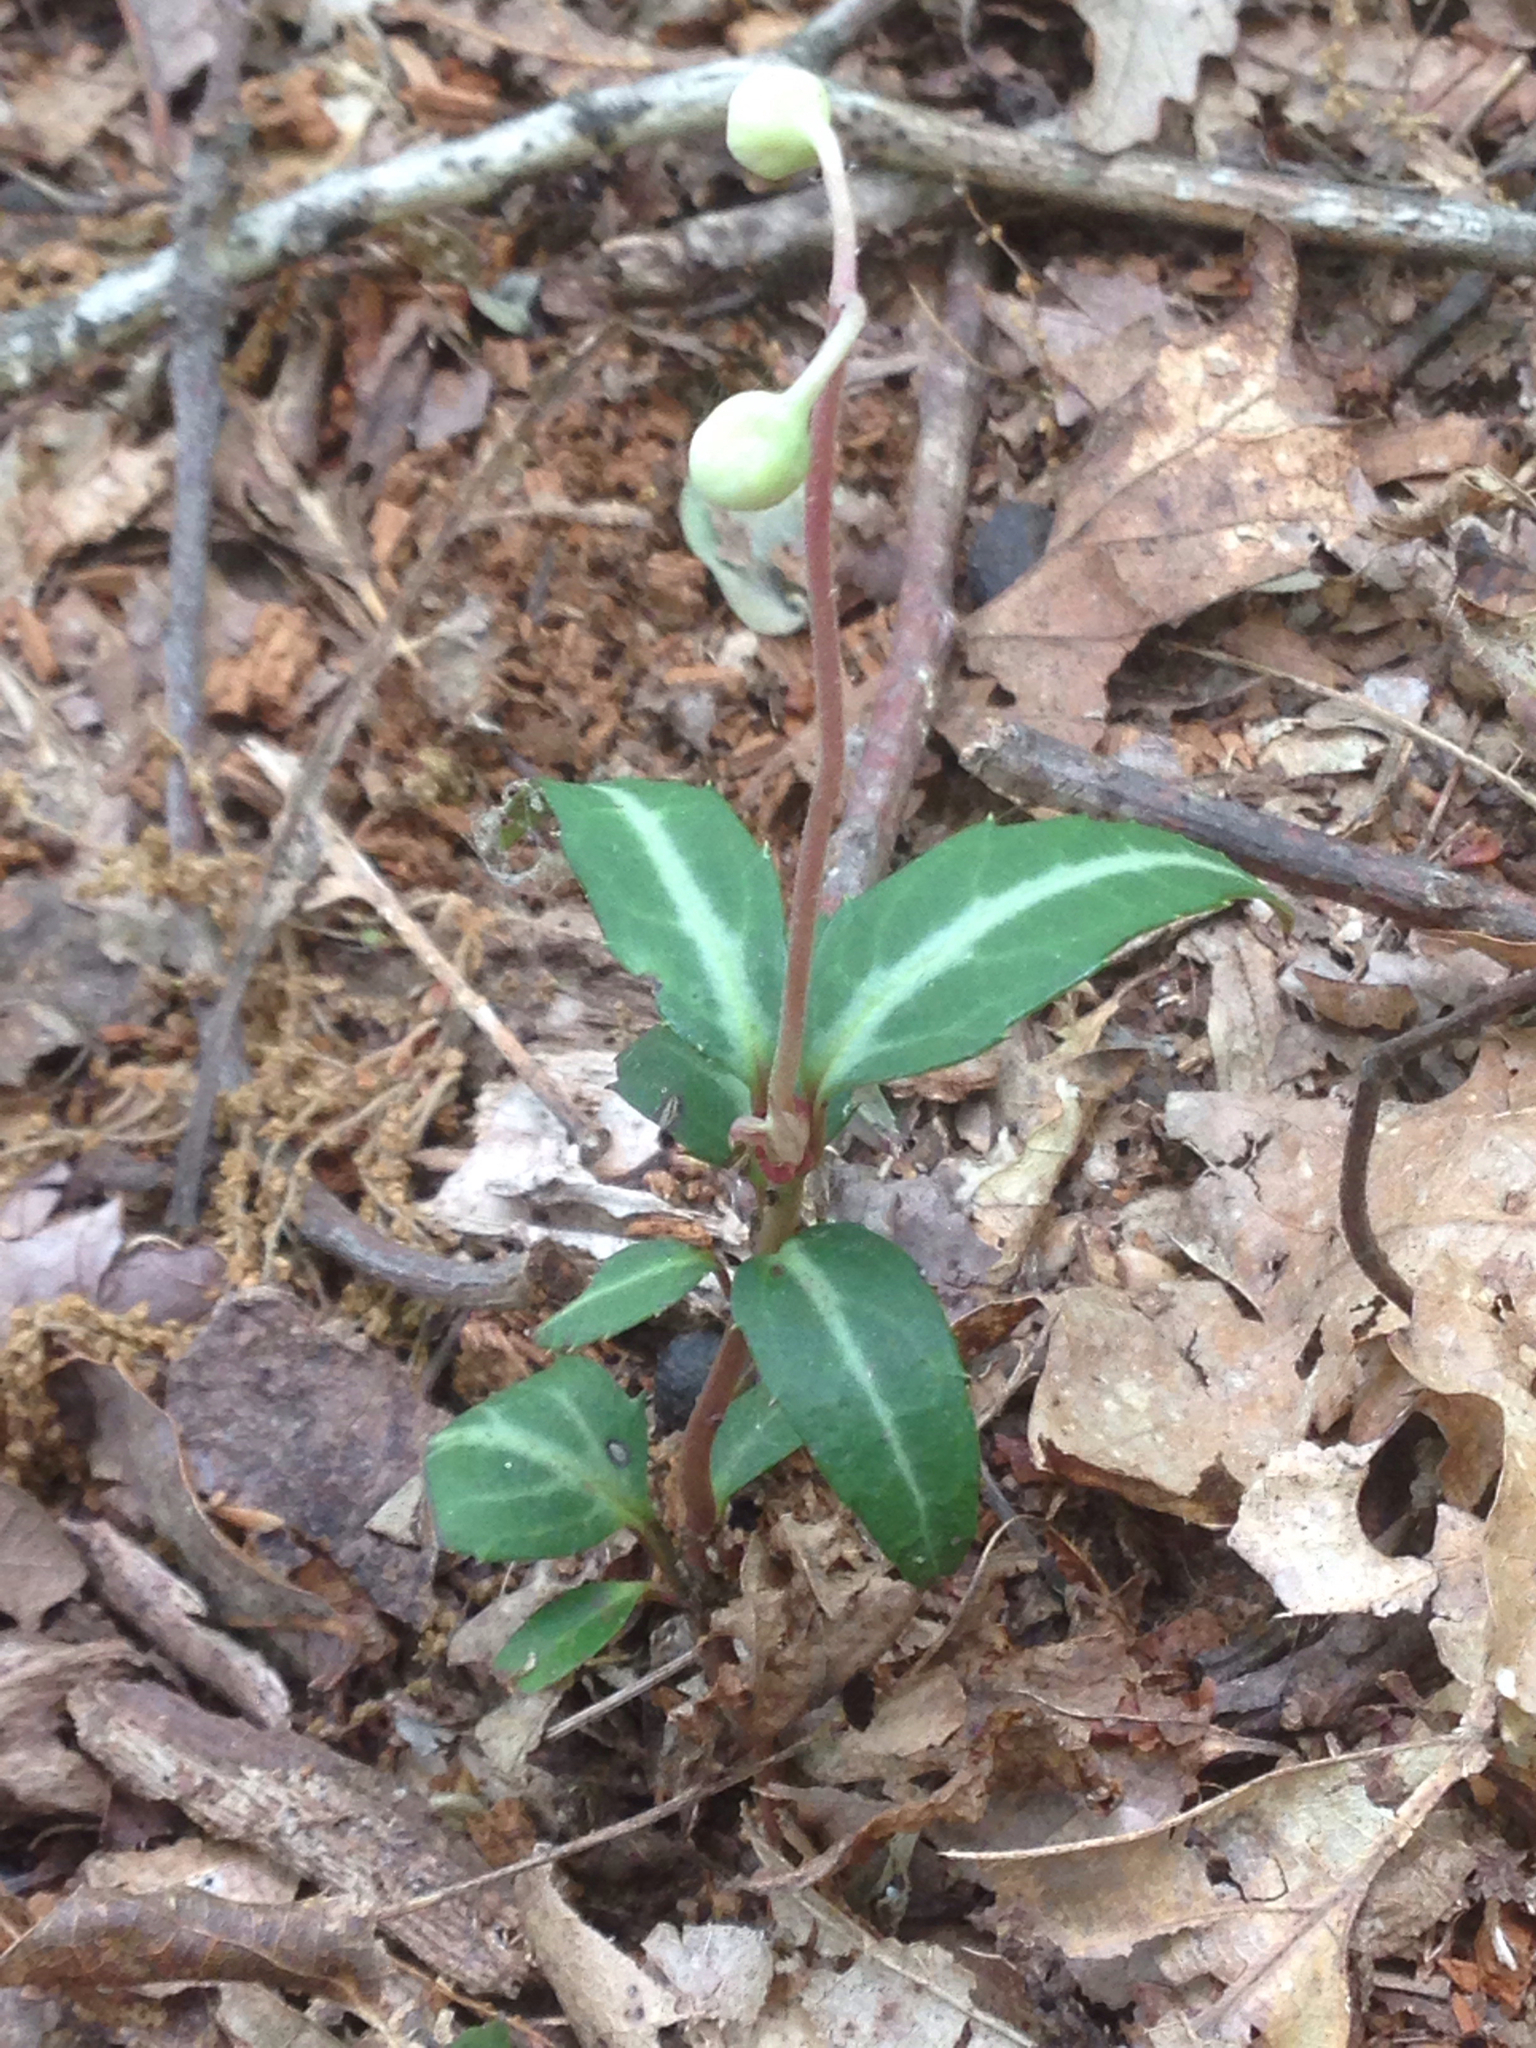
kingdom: Plantae
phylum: Tracheophyta
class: Magnoliopsida
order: Ericales
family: Ericaceae
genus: Chimaphila
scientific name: Chimaphila maculata
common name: Spotted pipsissewa
